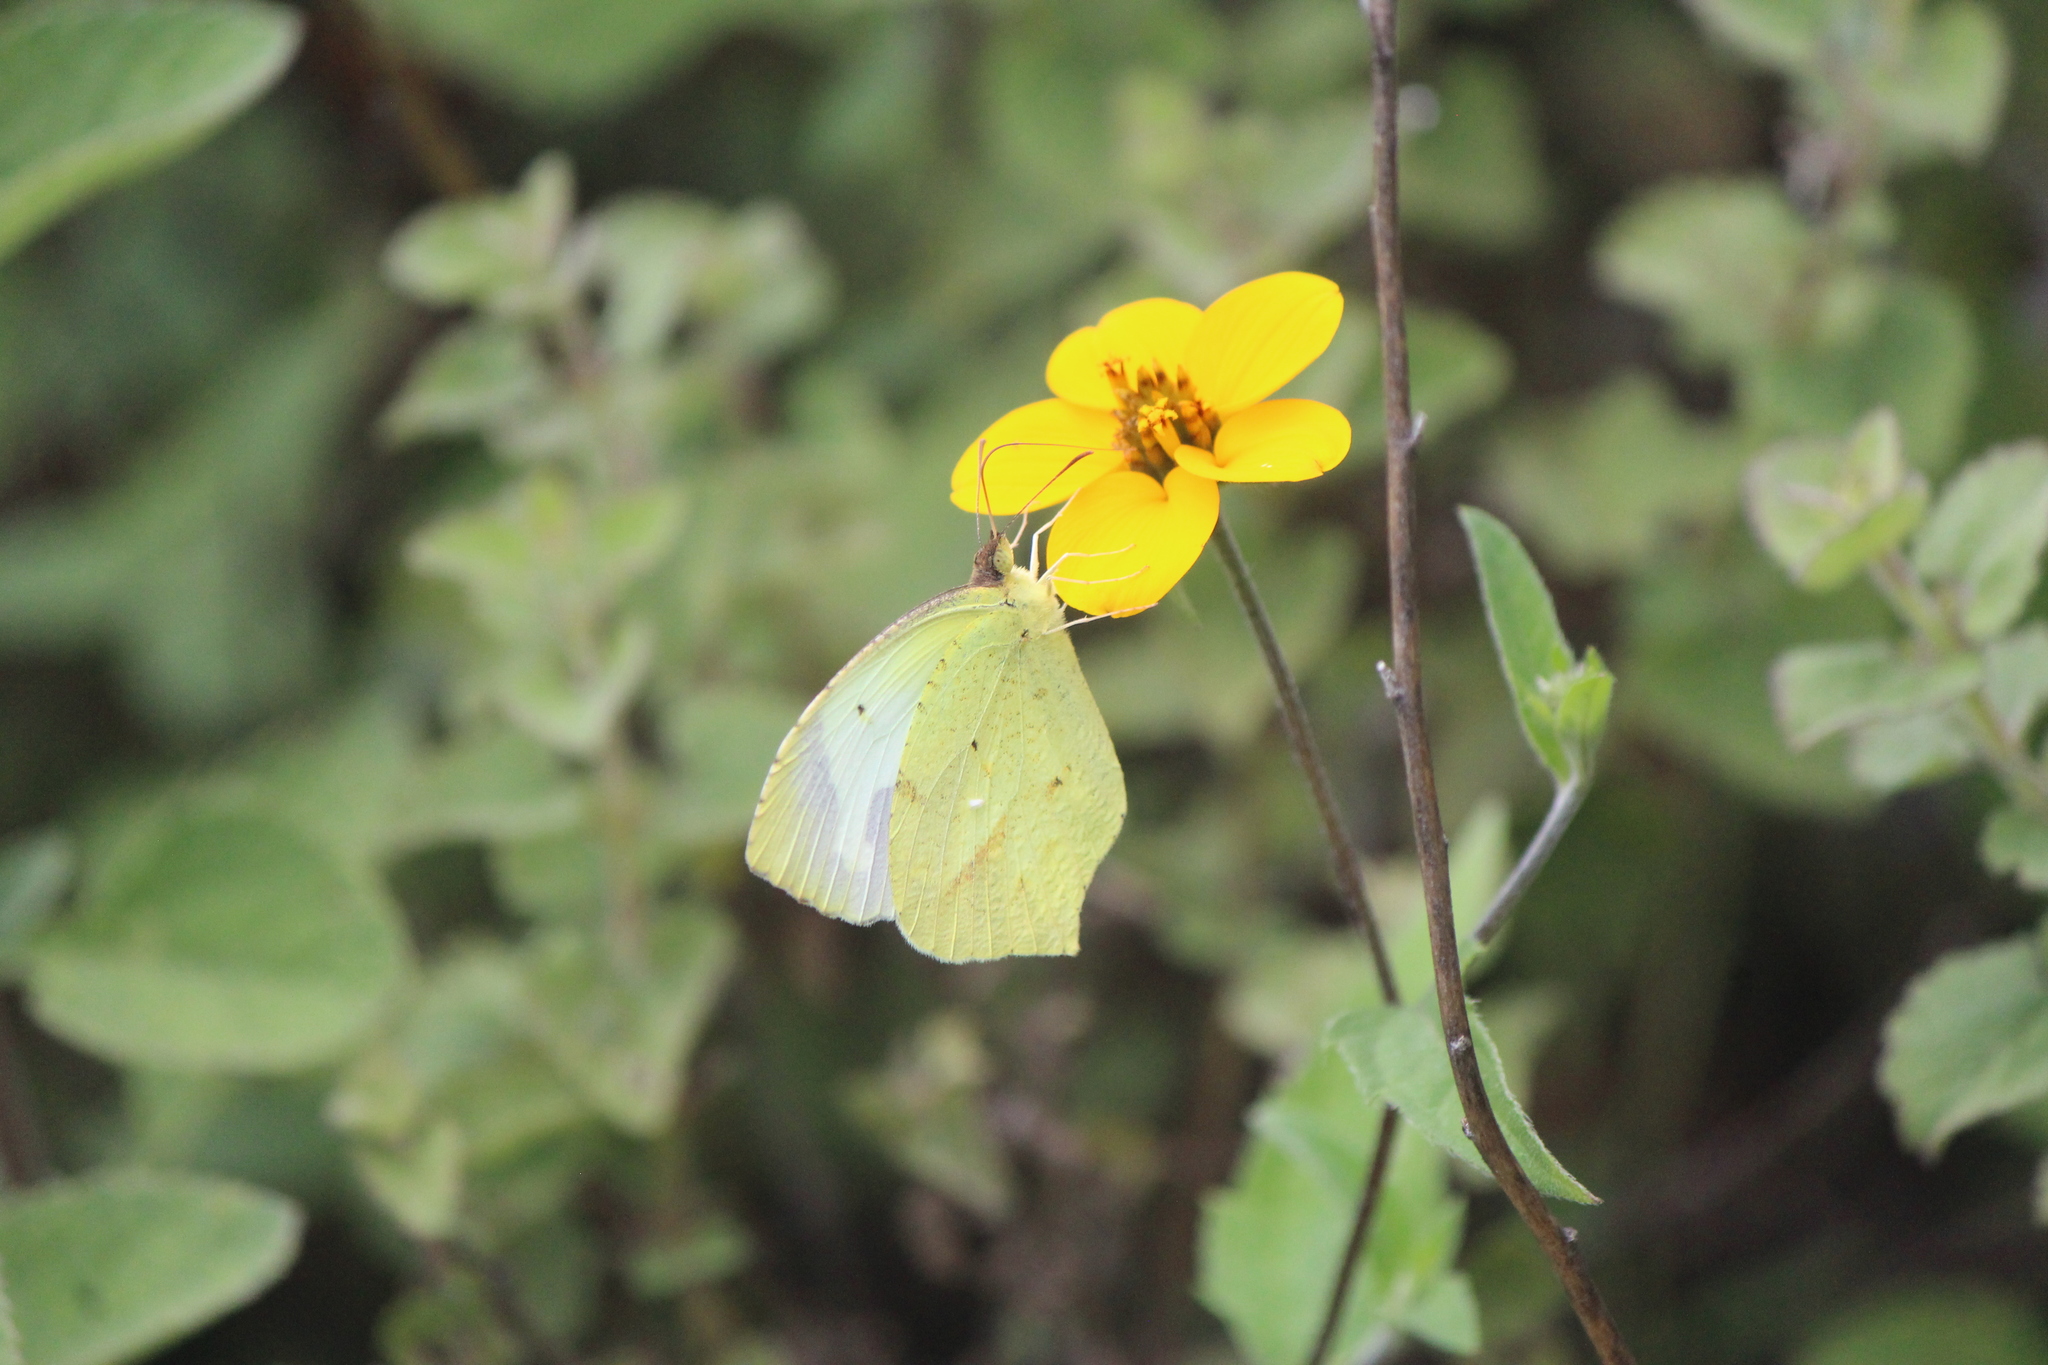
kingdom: Animalia
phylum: Arthropoda
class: Insecta
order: Lepidoptera
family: Pieridae
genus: Abaeis
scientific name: Abaeis mexicana
